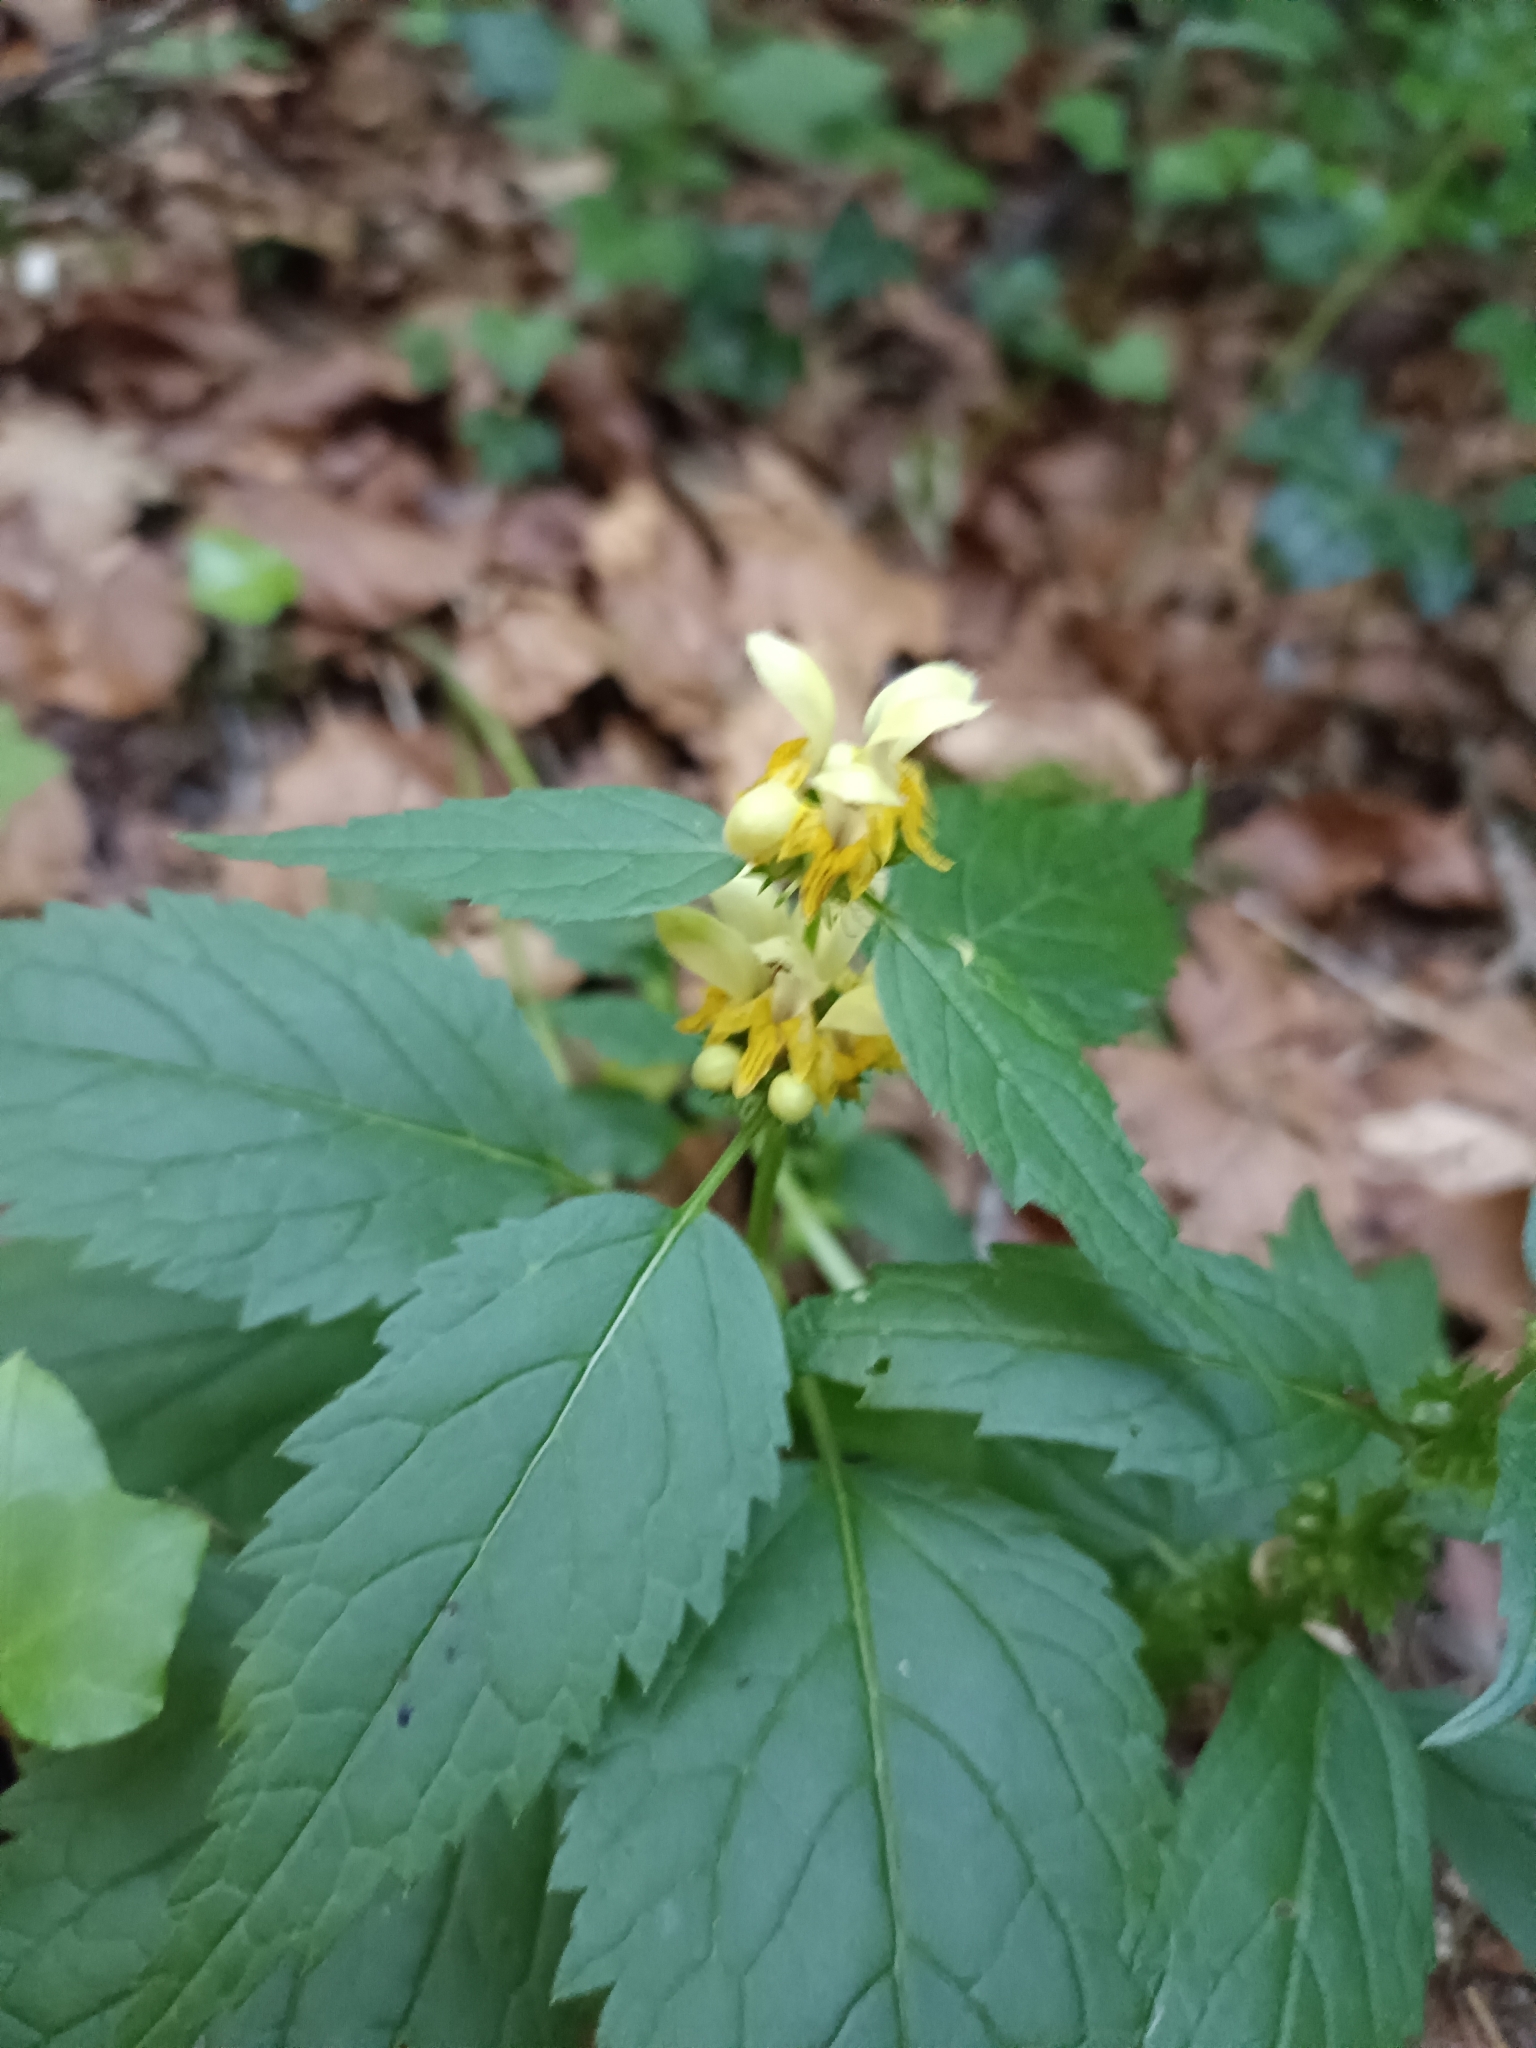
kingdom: Plantae
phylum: Tracheophyta
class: Magnoliopsida
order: Lamiales
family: Lamiaceae
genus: Lamium
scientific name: Lamium galeobdolon
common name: Yellow archangel
